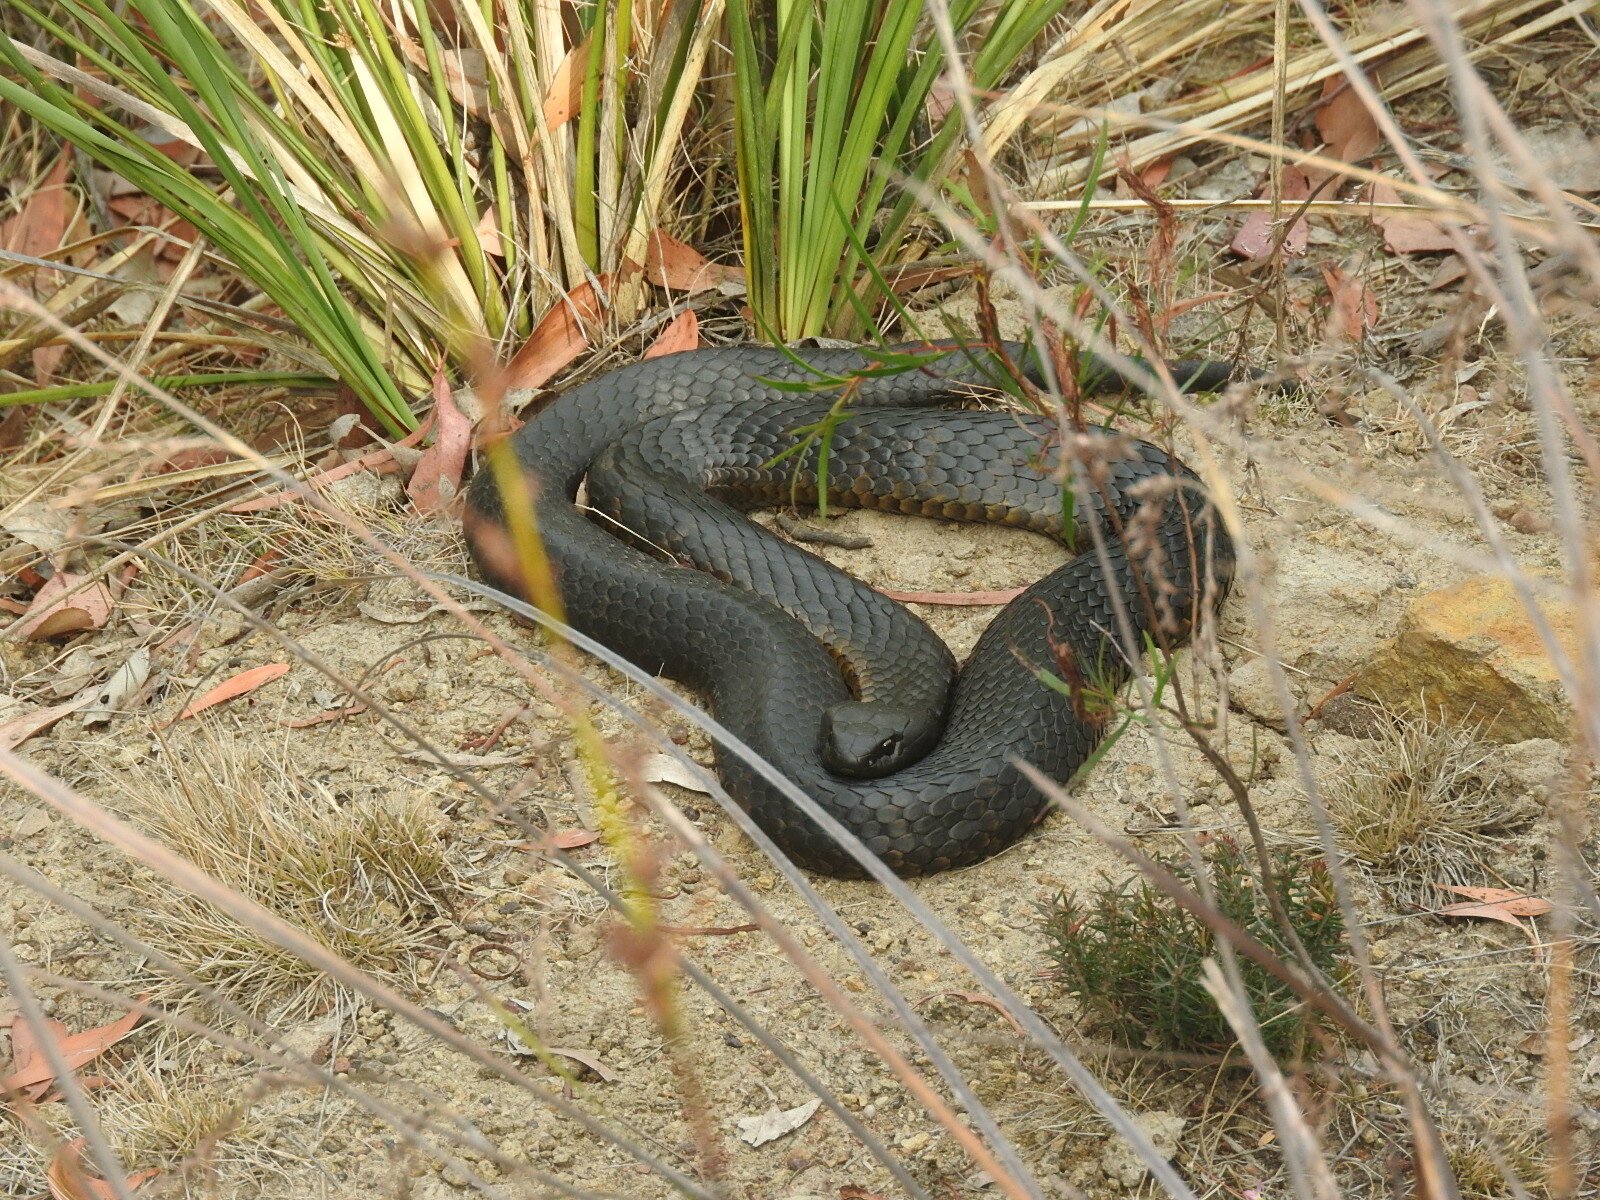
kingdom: Animalia
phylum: Chordata
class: Squamata
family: Elapidae
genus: Notechis
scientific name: Notechis scutatus
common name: Mainland tiger snake
